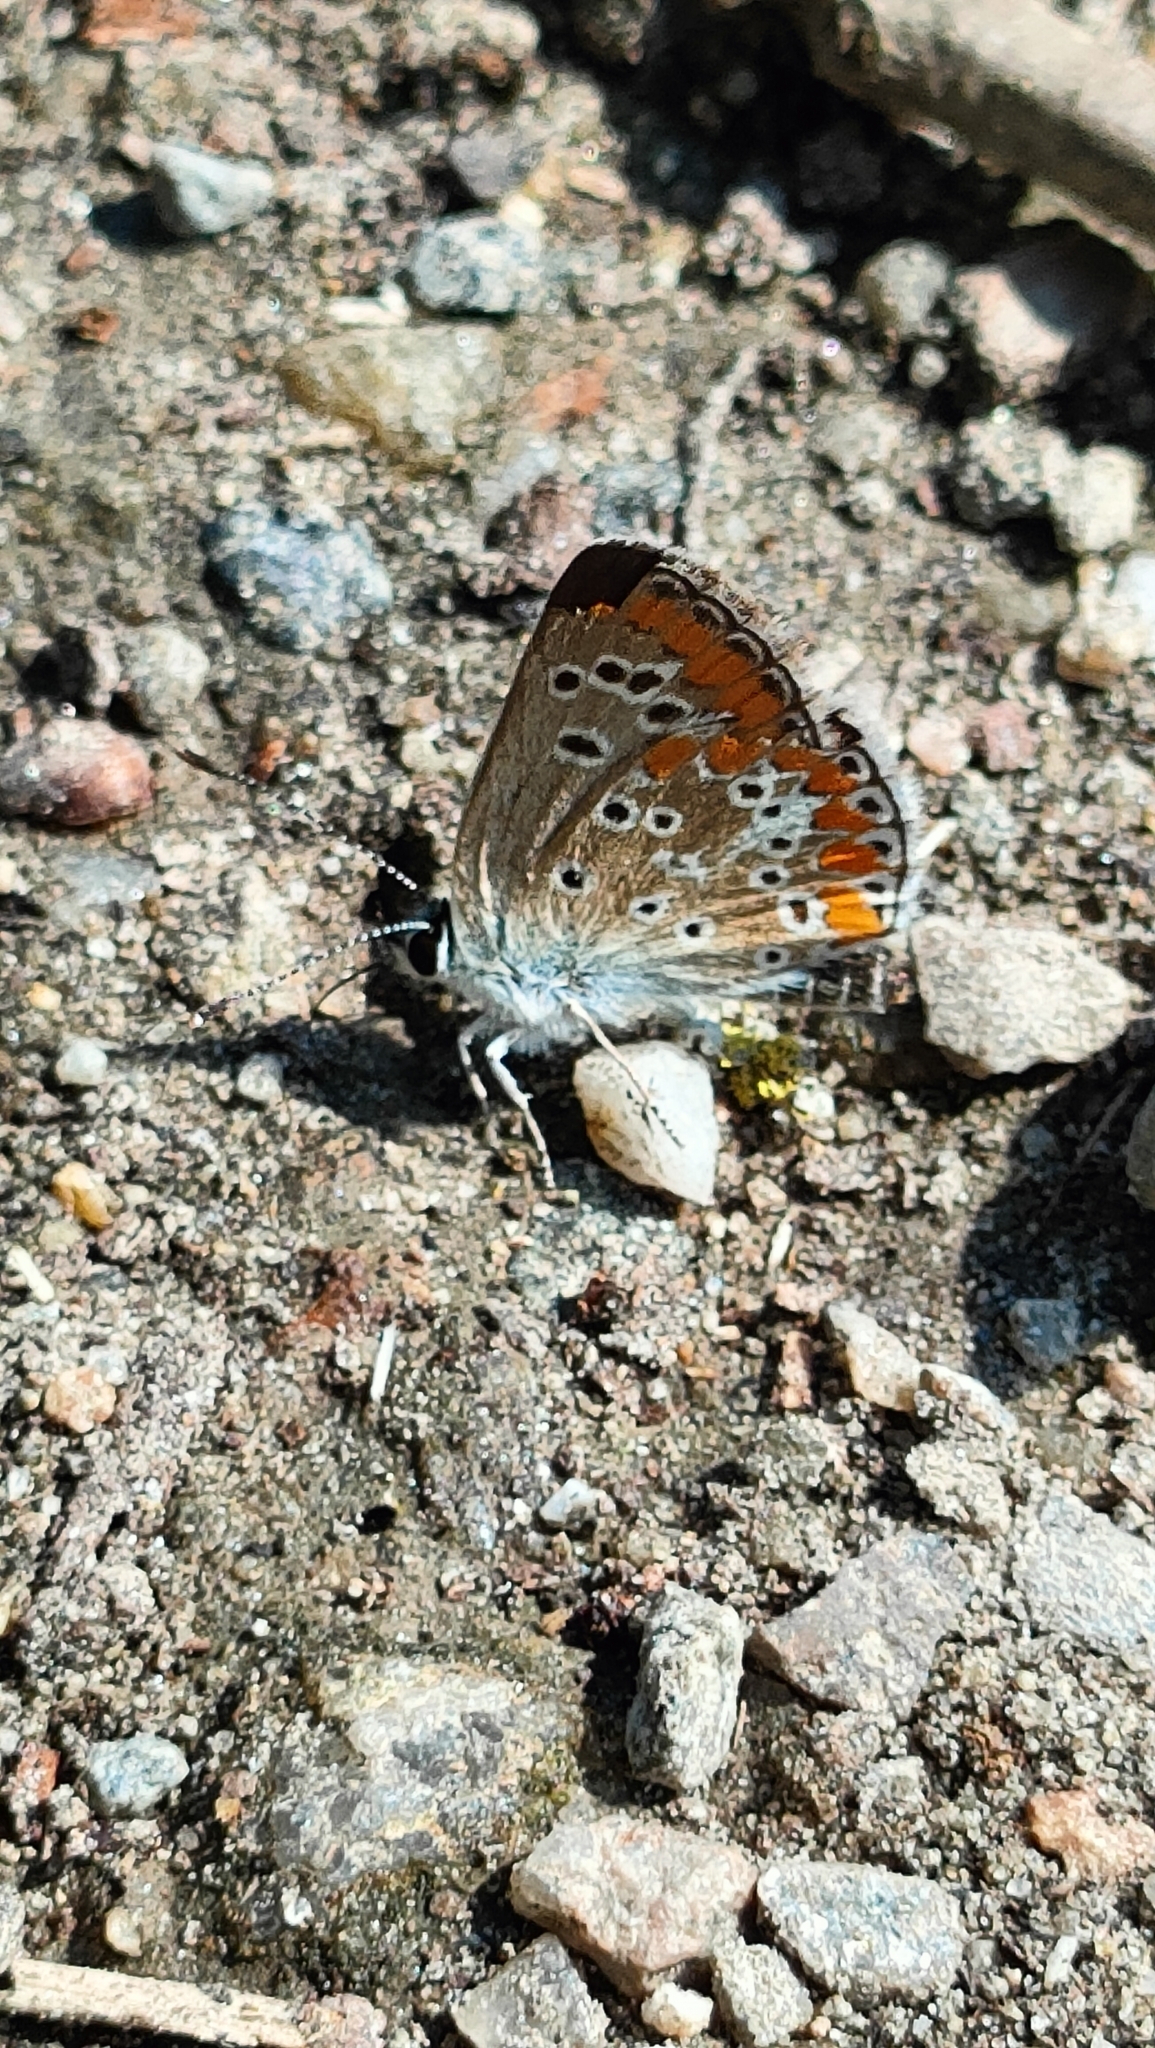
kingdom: Animalia
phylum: Arthropoda
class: Insecta
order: Lepidoptera
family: Lycaenidae
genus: Aricia
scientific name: Aricia agestis
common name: Brown argus
